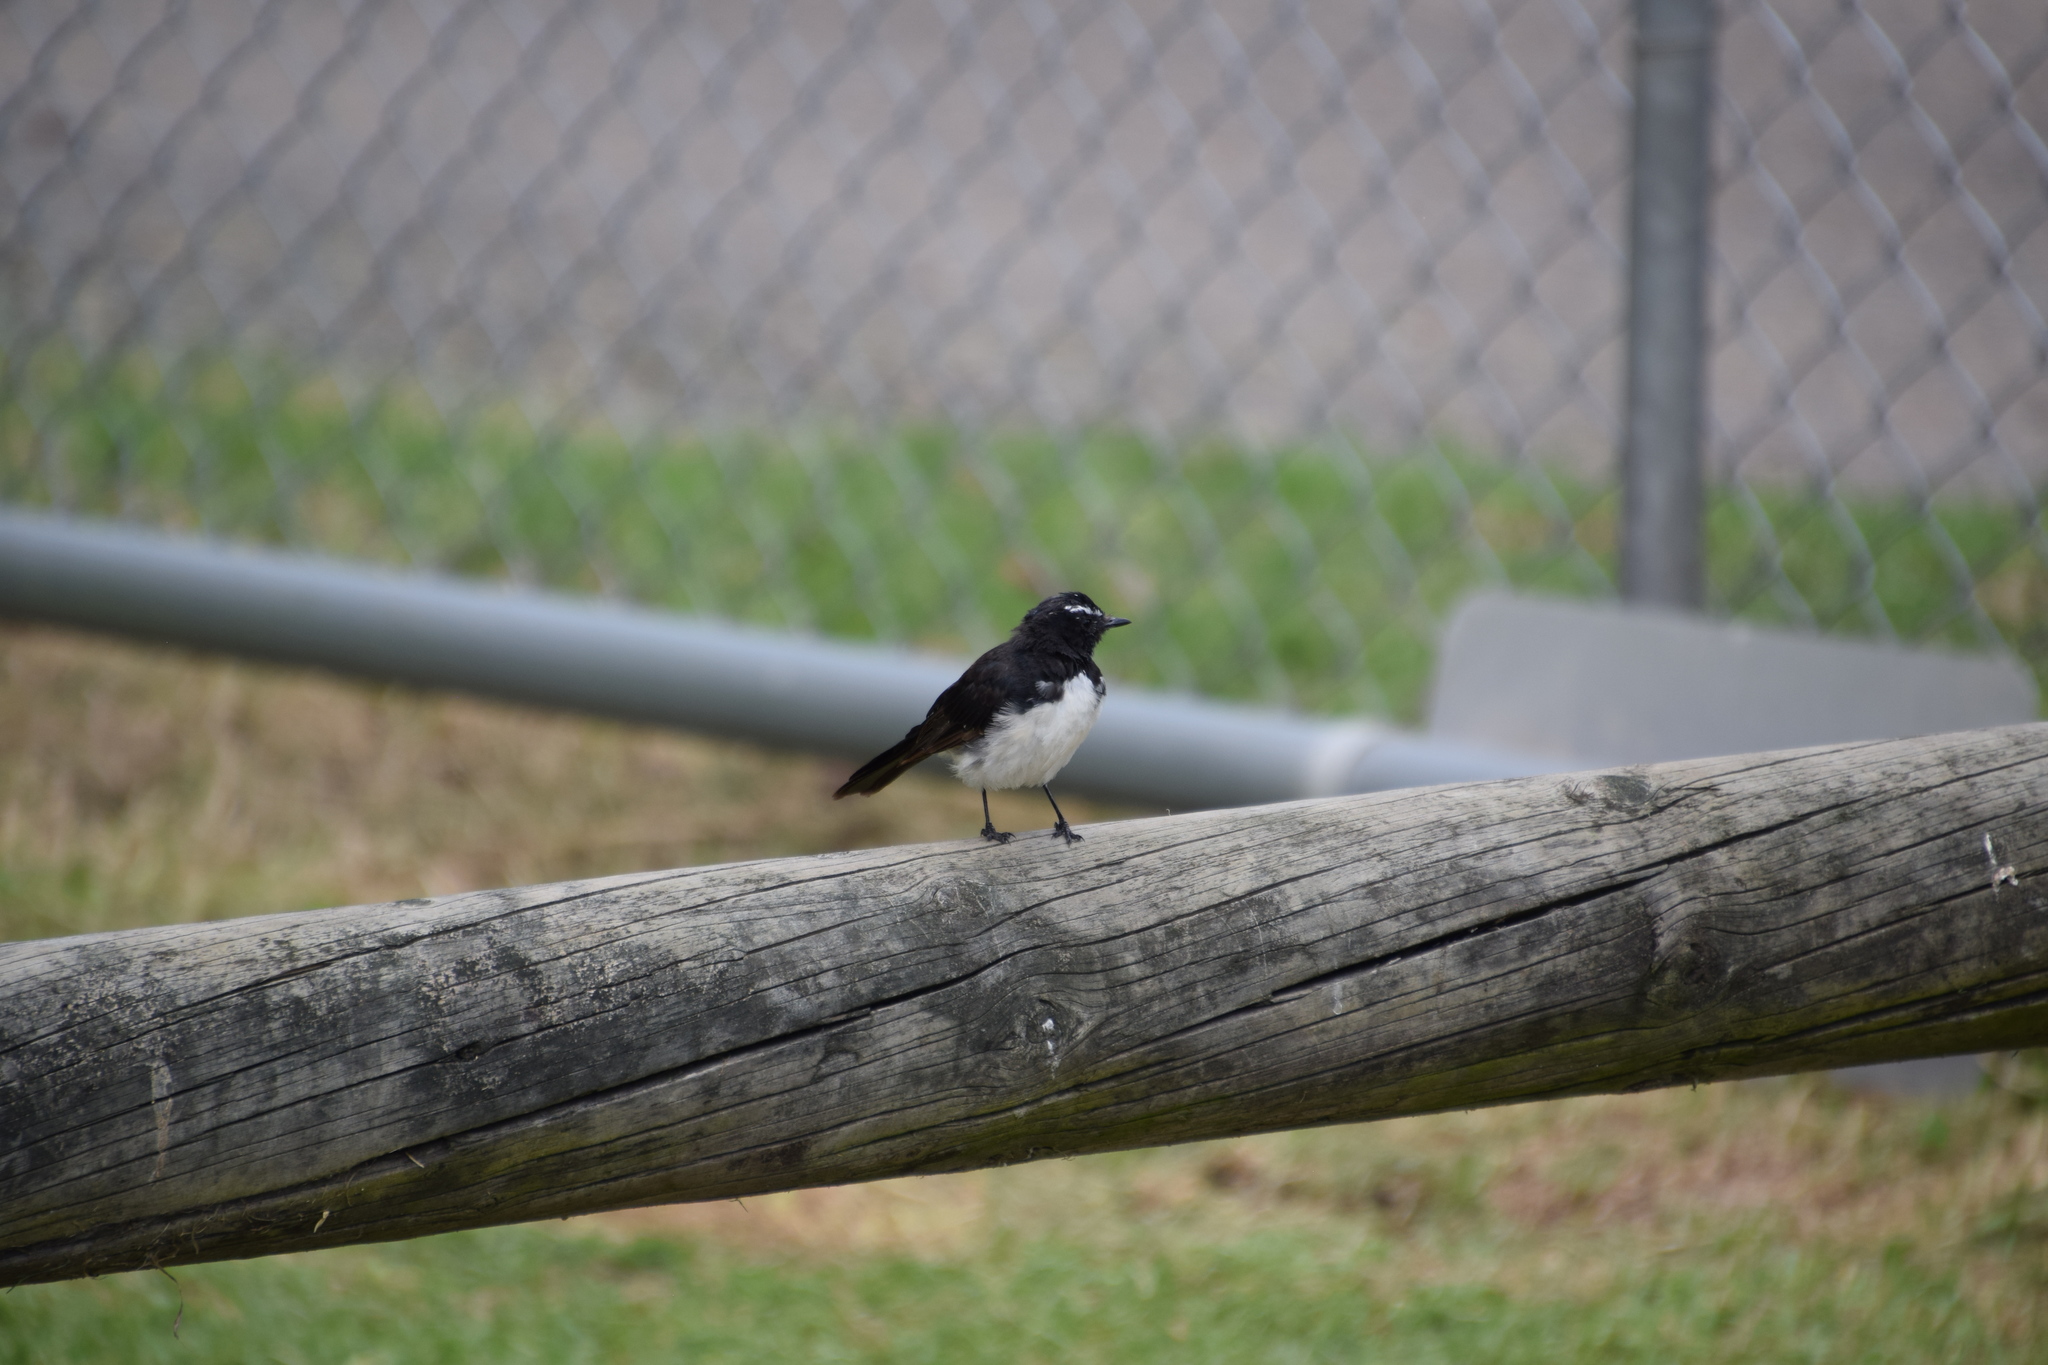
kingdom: Animalia
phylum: Chordata
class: Aves
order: Passeriformes
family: Rhipiduridae
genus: Rhipidura
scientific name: Rhipidura leucophrys
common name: Willie wagtail
